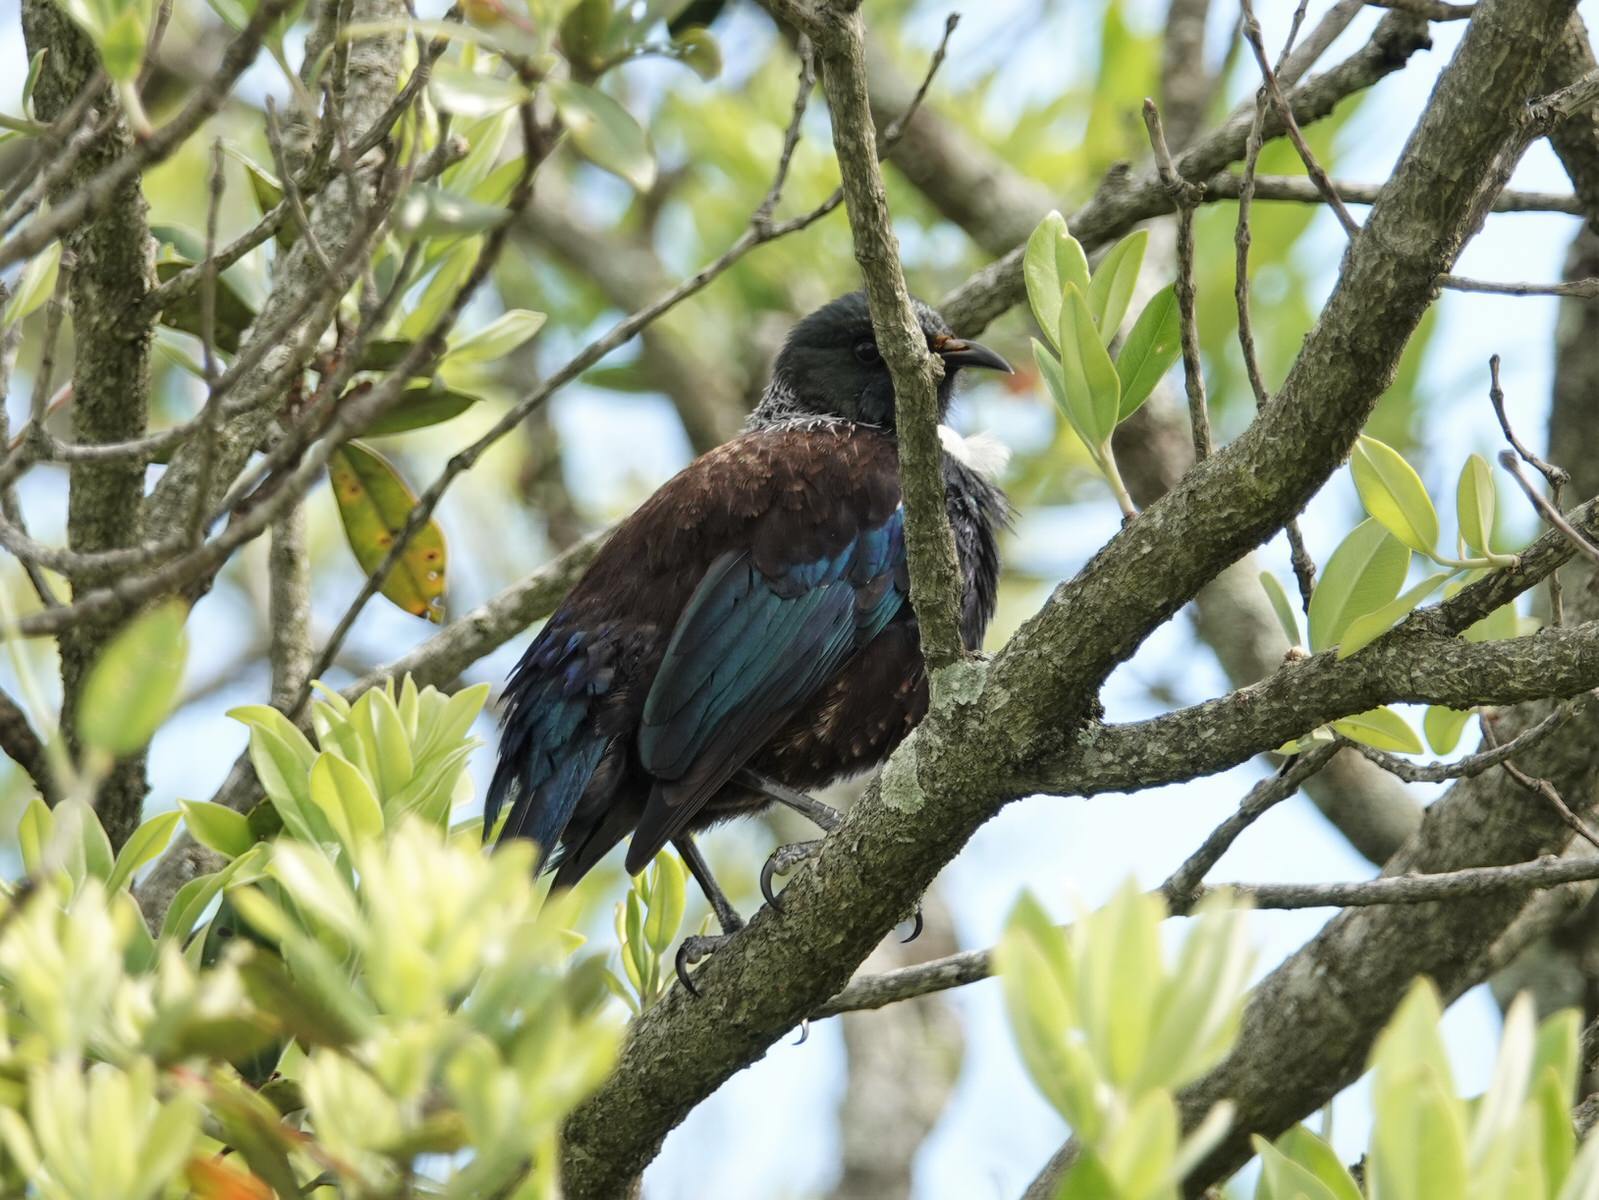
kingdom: Animalia
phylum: Chordata
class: Aves
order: Passeriformes
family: Meliphagidae
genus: Prosthemadera
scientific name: Prosthemadera novaeseelandiae
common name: Tui
